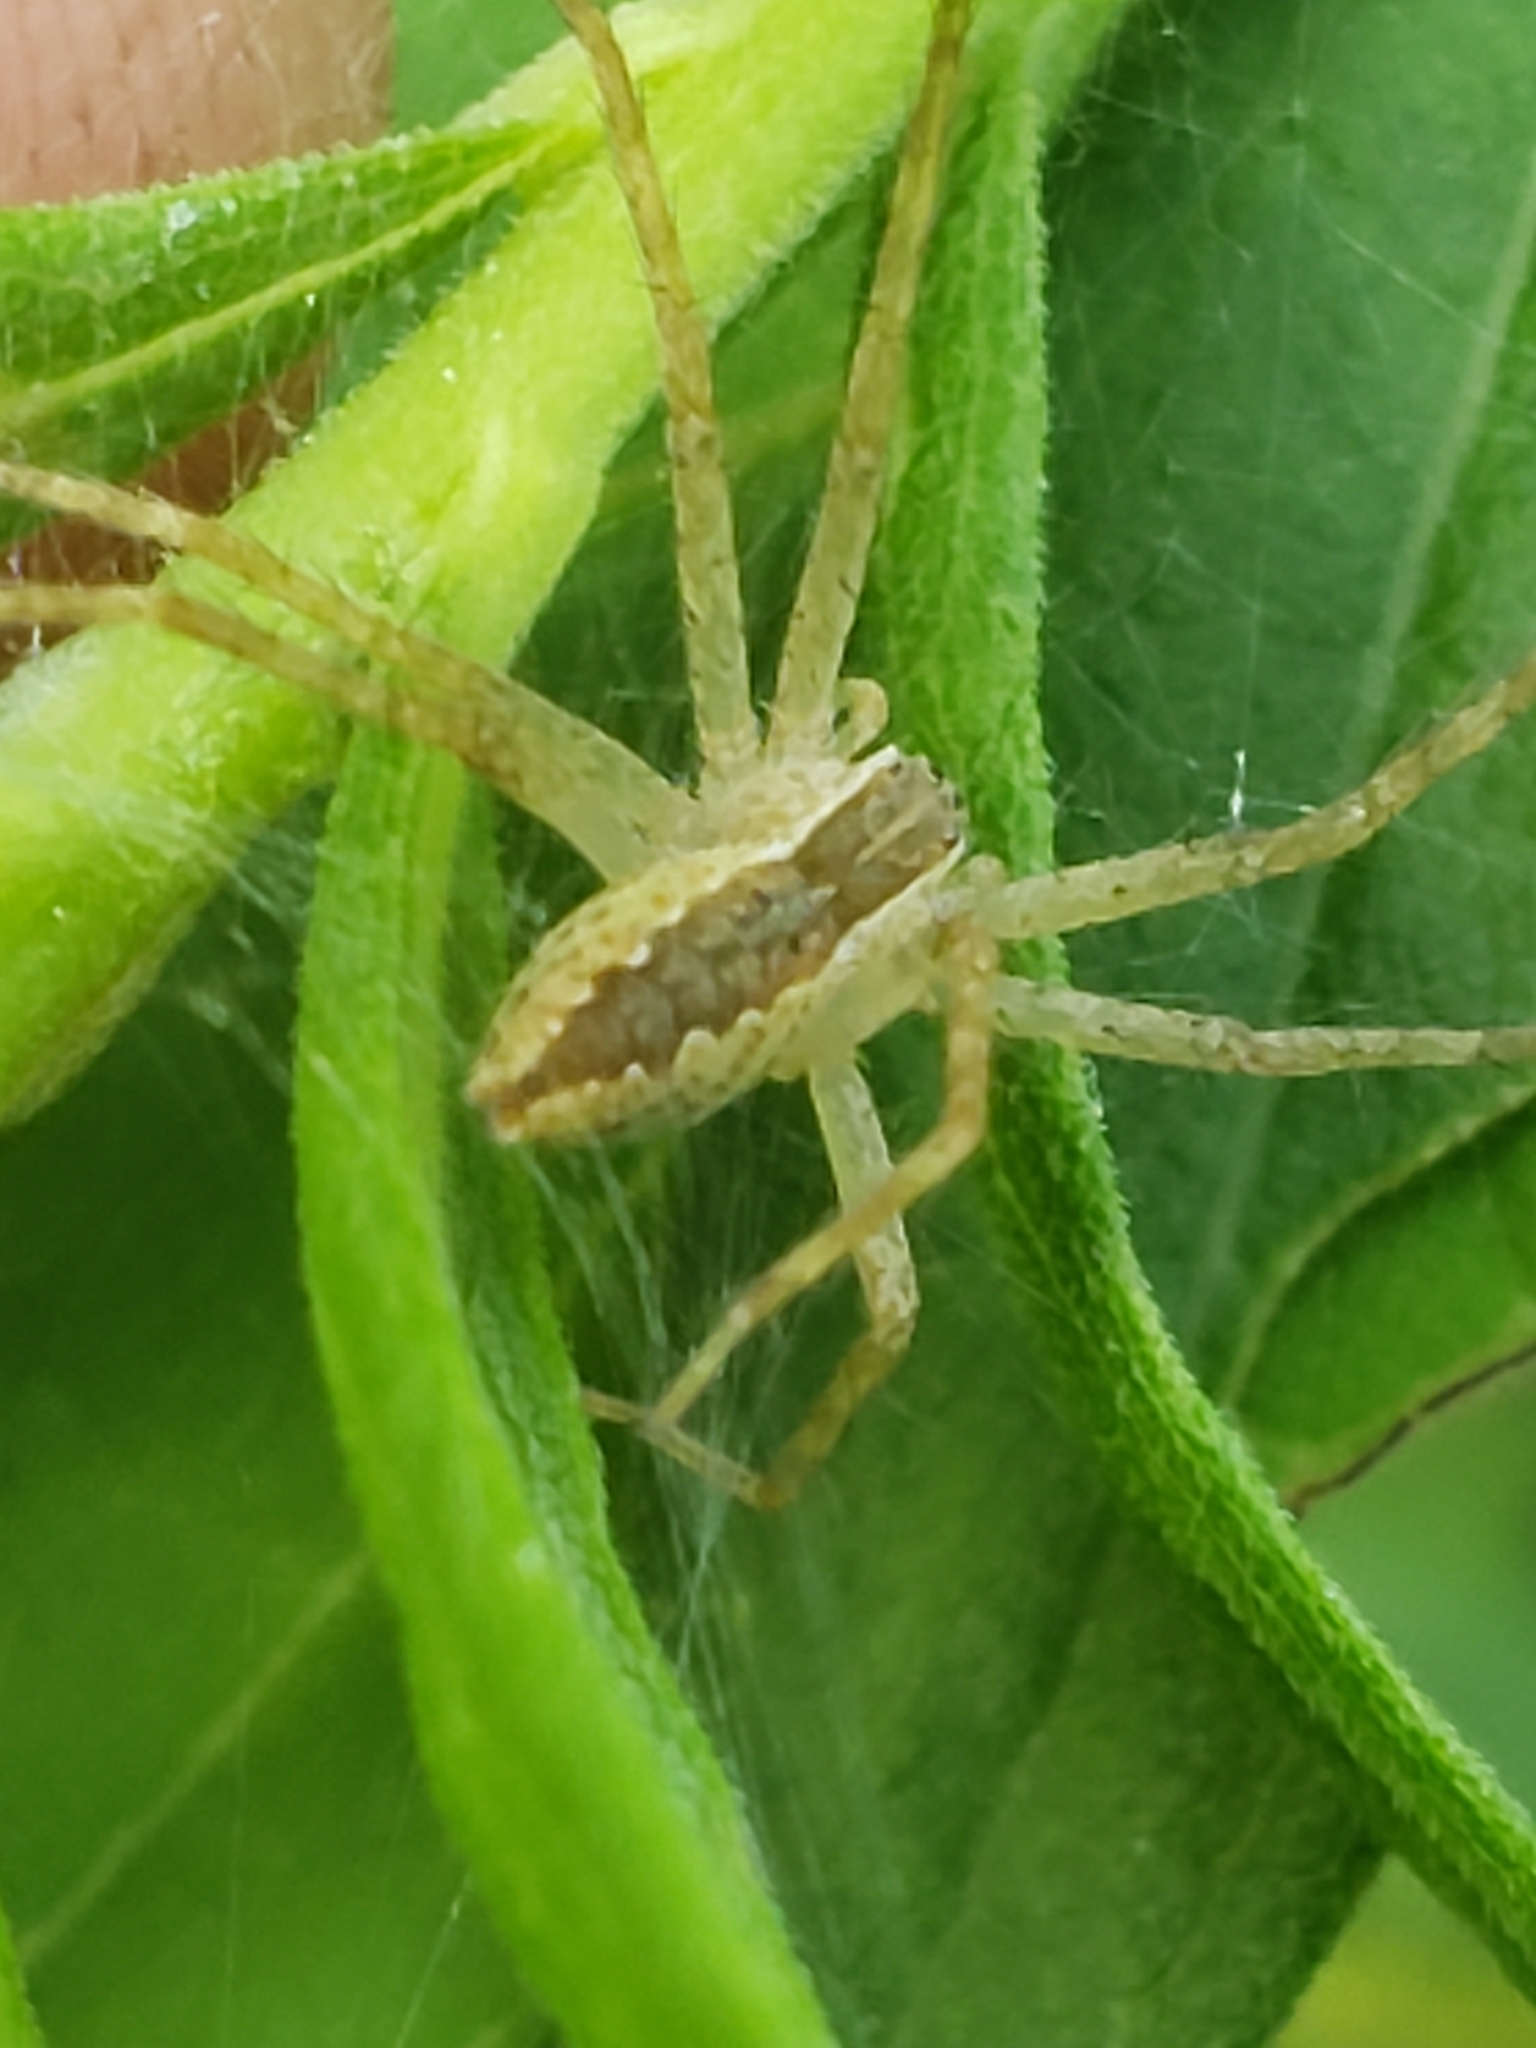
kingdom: Animalia
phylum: Arthropoda
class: Arachnida
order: Araneae
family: Pisauridae
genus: Pisaurina
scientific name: Pisaurina mira
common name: American nursery web spider
